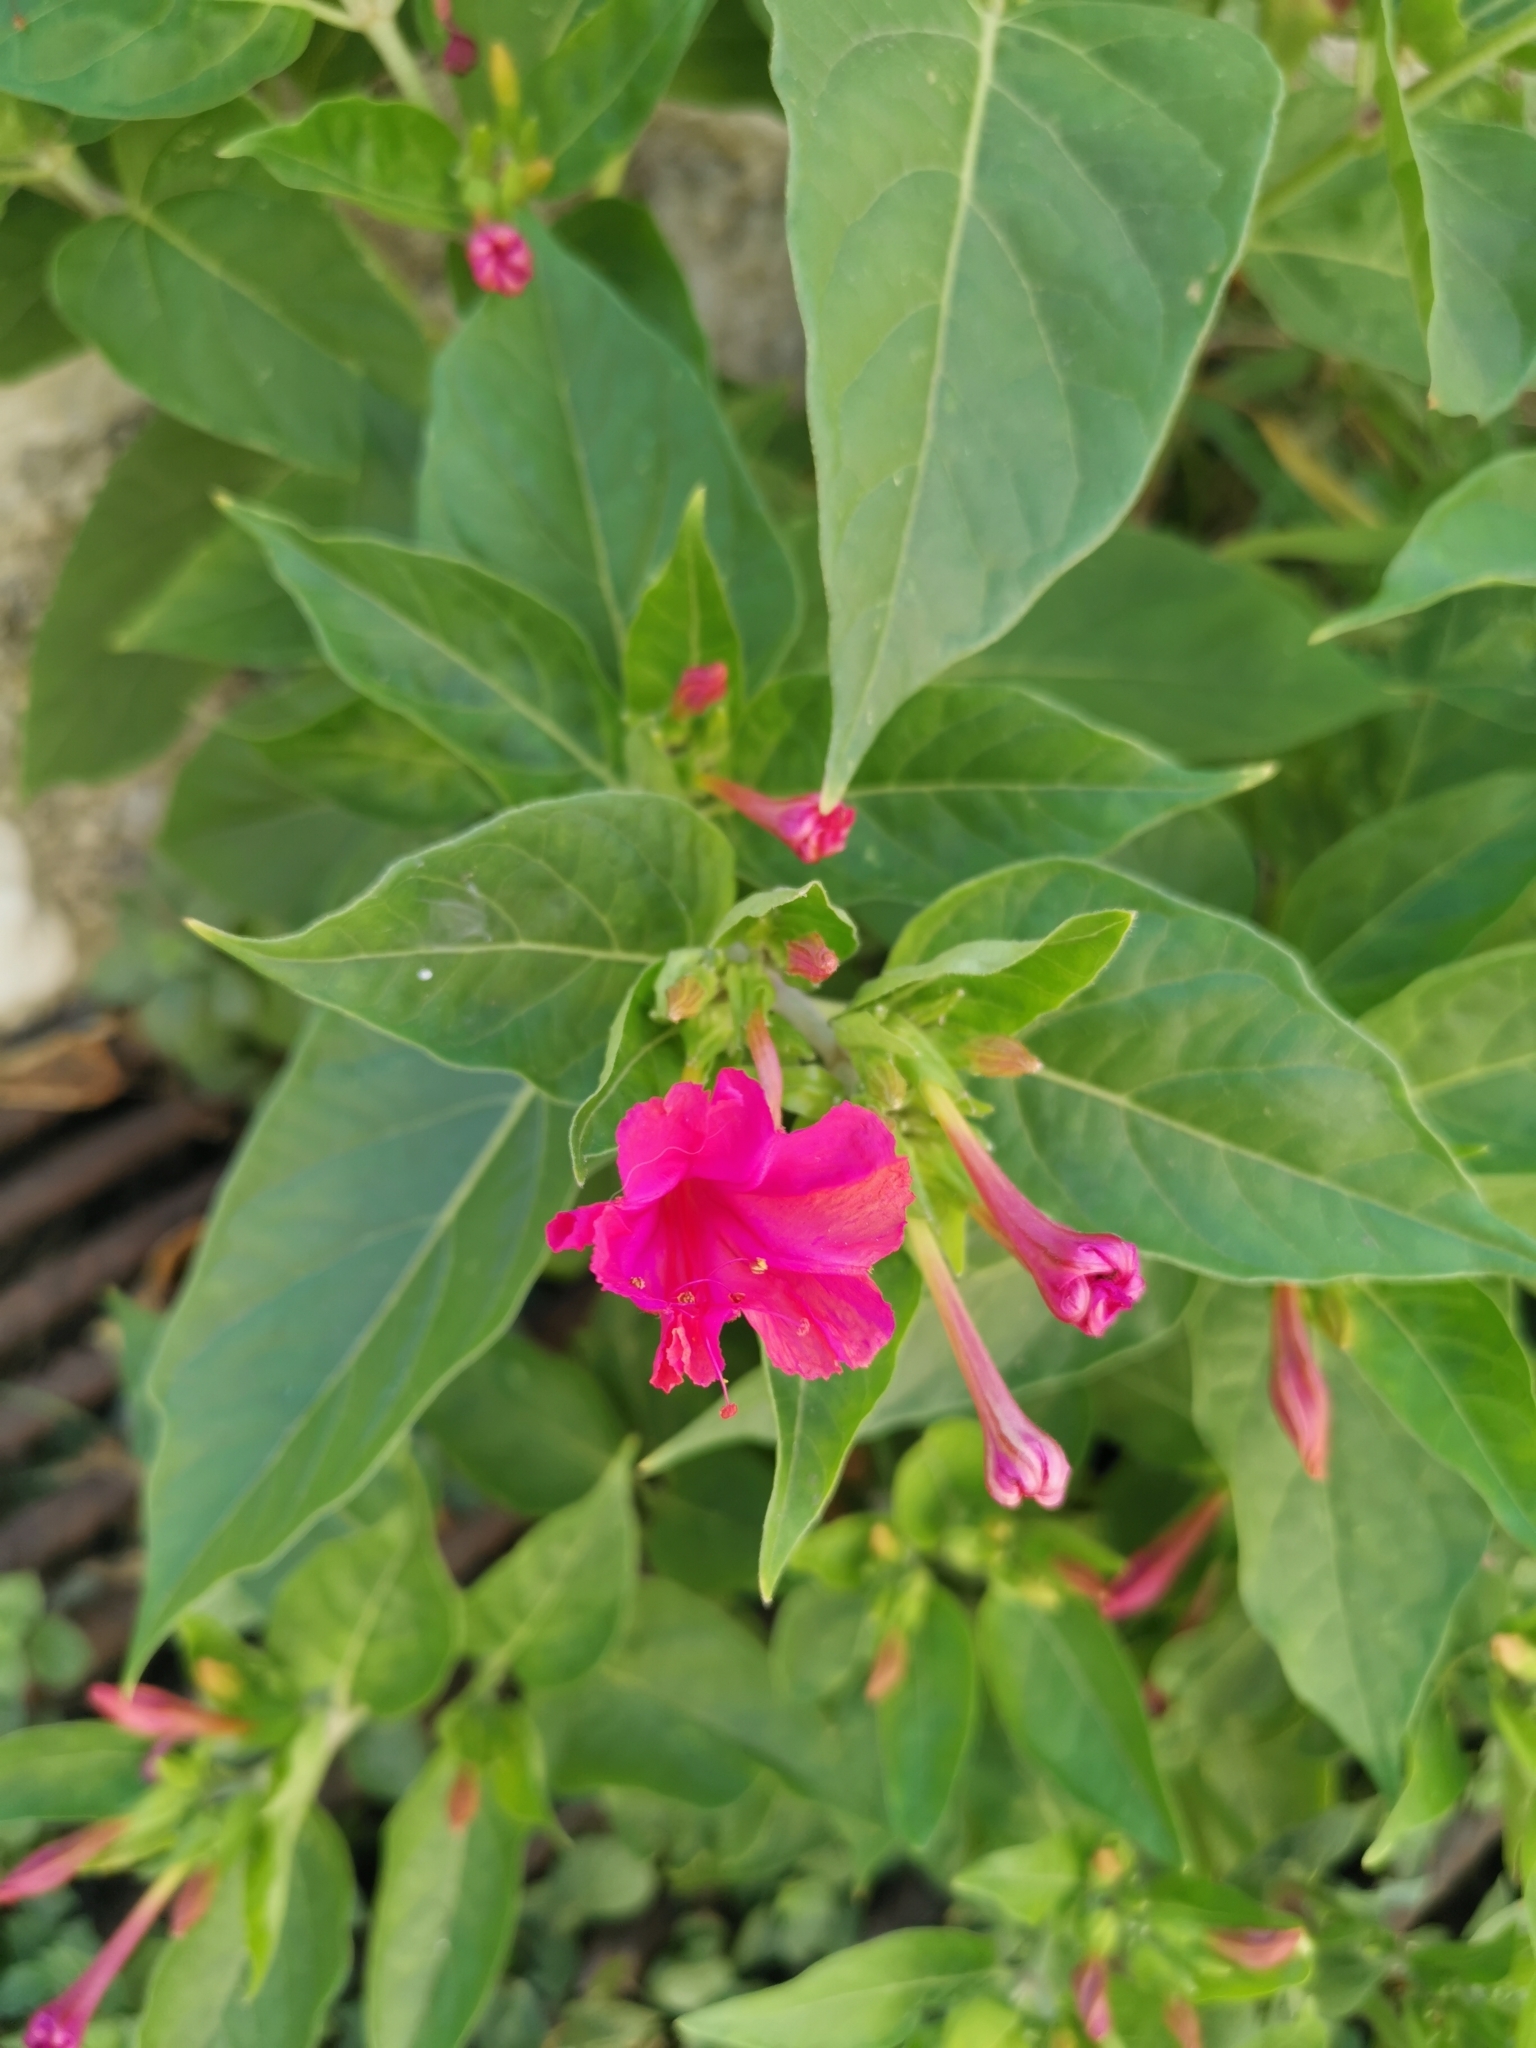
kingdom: Plantae
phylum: Tracheophyta
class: Magnoliopsida
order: Caryophyllales
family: Nyctaginaceae
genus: Mirabilis
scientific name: Mirabilis jalapa
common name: Marvel-of-peru
